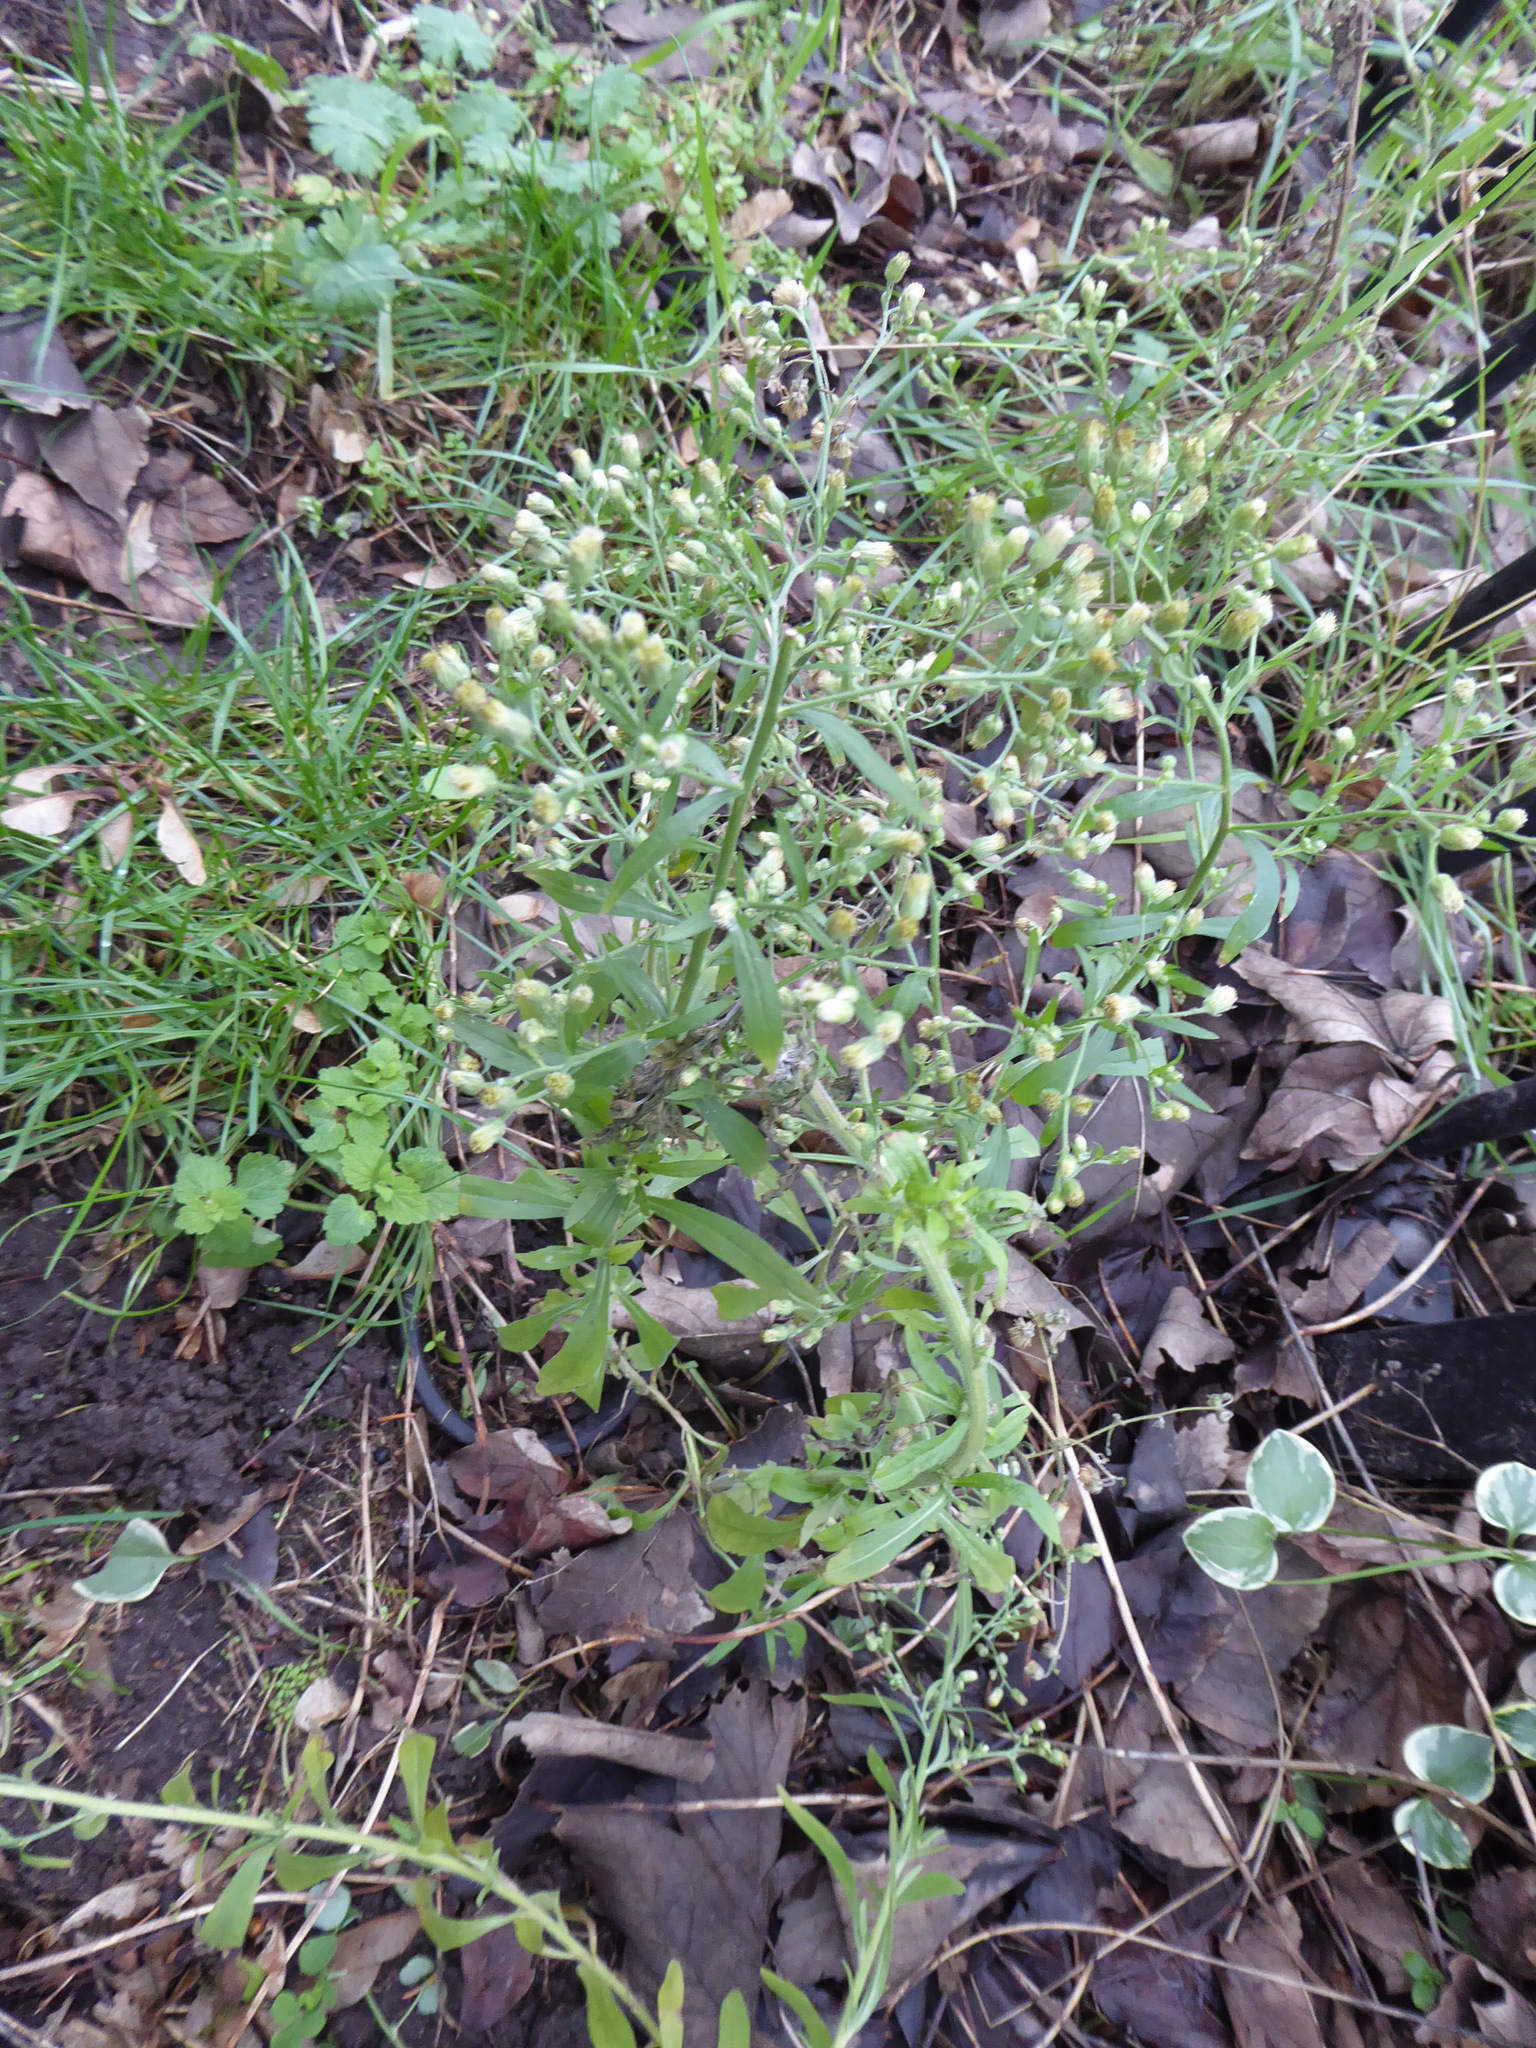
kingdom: Plantae
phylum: Tracheophyta
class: Magnoliopsida
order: Asterales
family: Asteraceae
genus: Erigeron
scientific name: Erigeron sumatrensis
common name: Daisy
